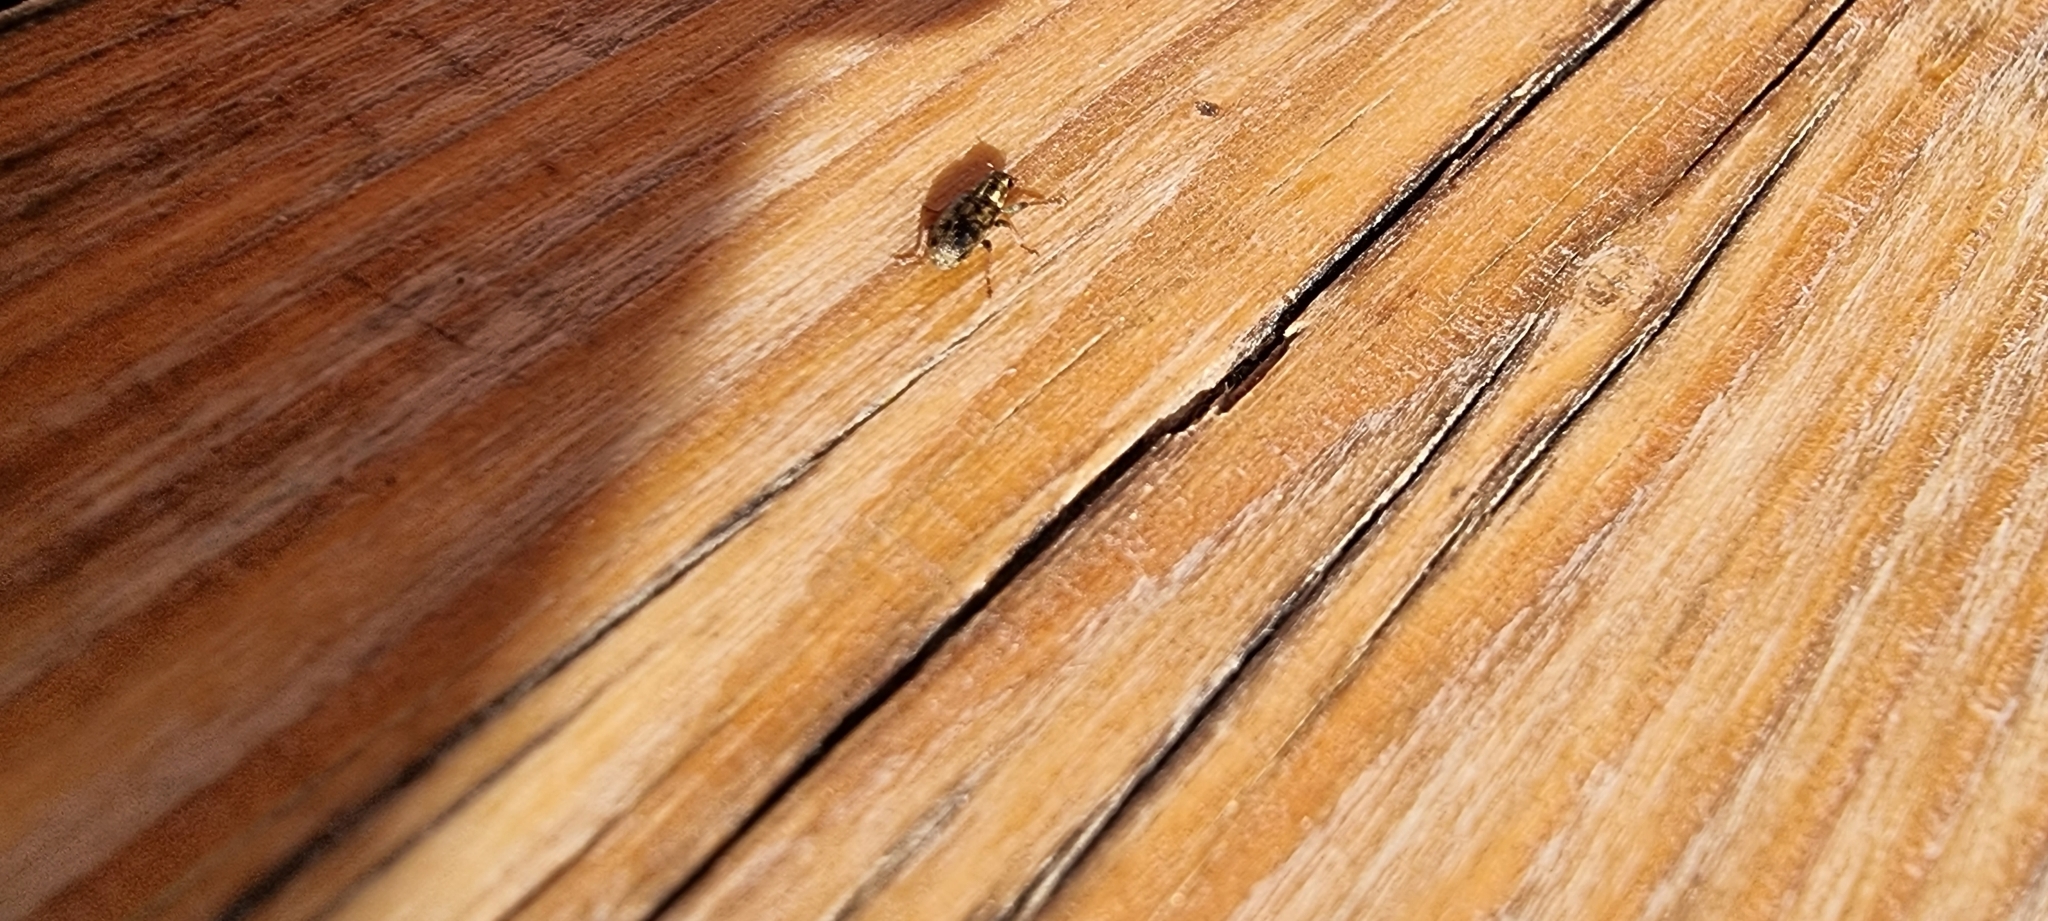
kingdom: Animalia
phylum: Arthropoda
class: Insecta
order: Coleoptera
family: Curculionidae
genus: Sitona
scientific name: Sitona lineatus
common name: Weevil
